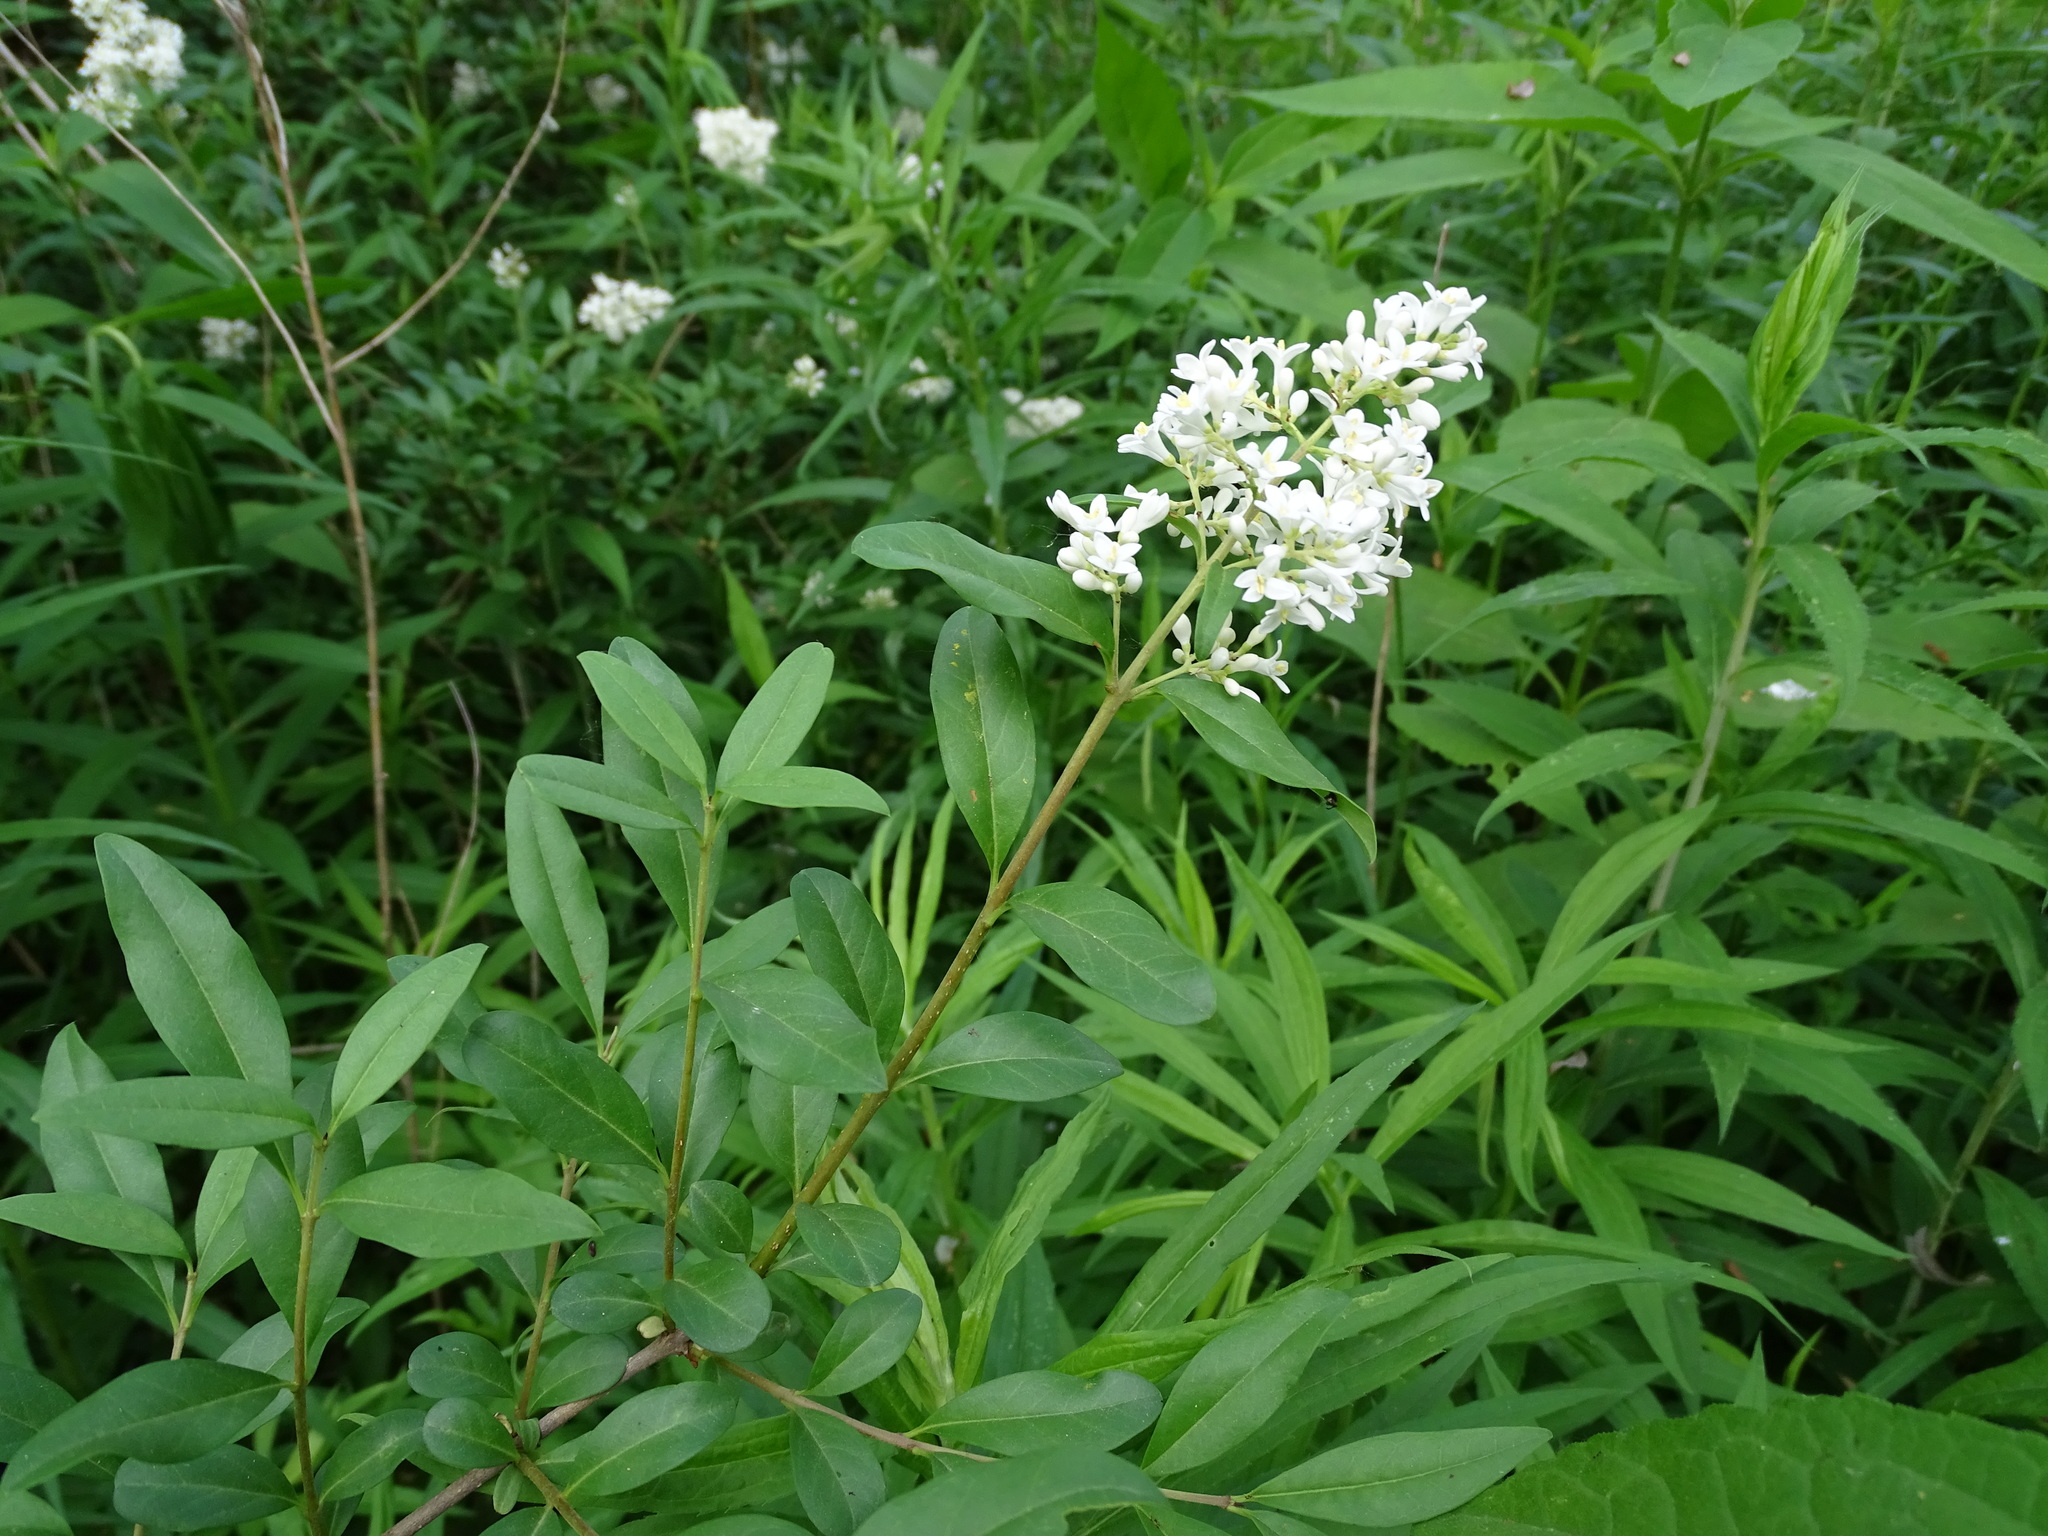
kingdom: Plantae
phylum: Tracheophyta
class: Magnoliopsida
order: Lamiales
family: Oleaceae
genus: Ligustrum
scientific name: Ligustrum vulgare
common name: Wild privet
